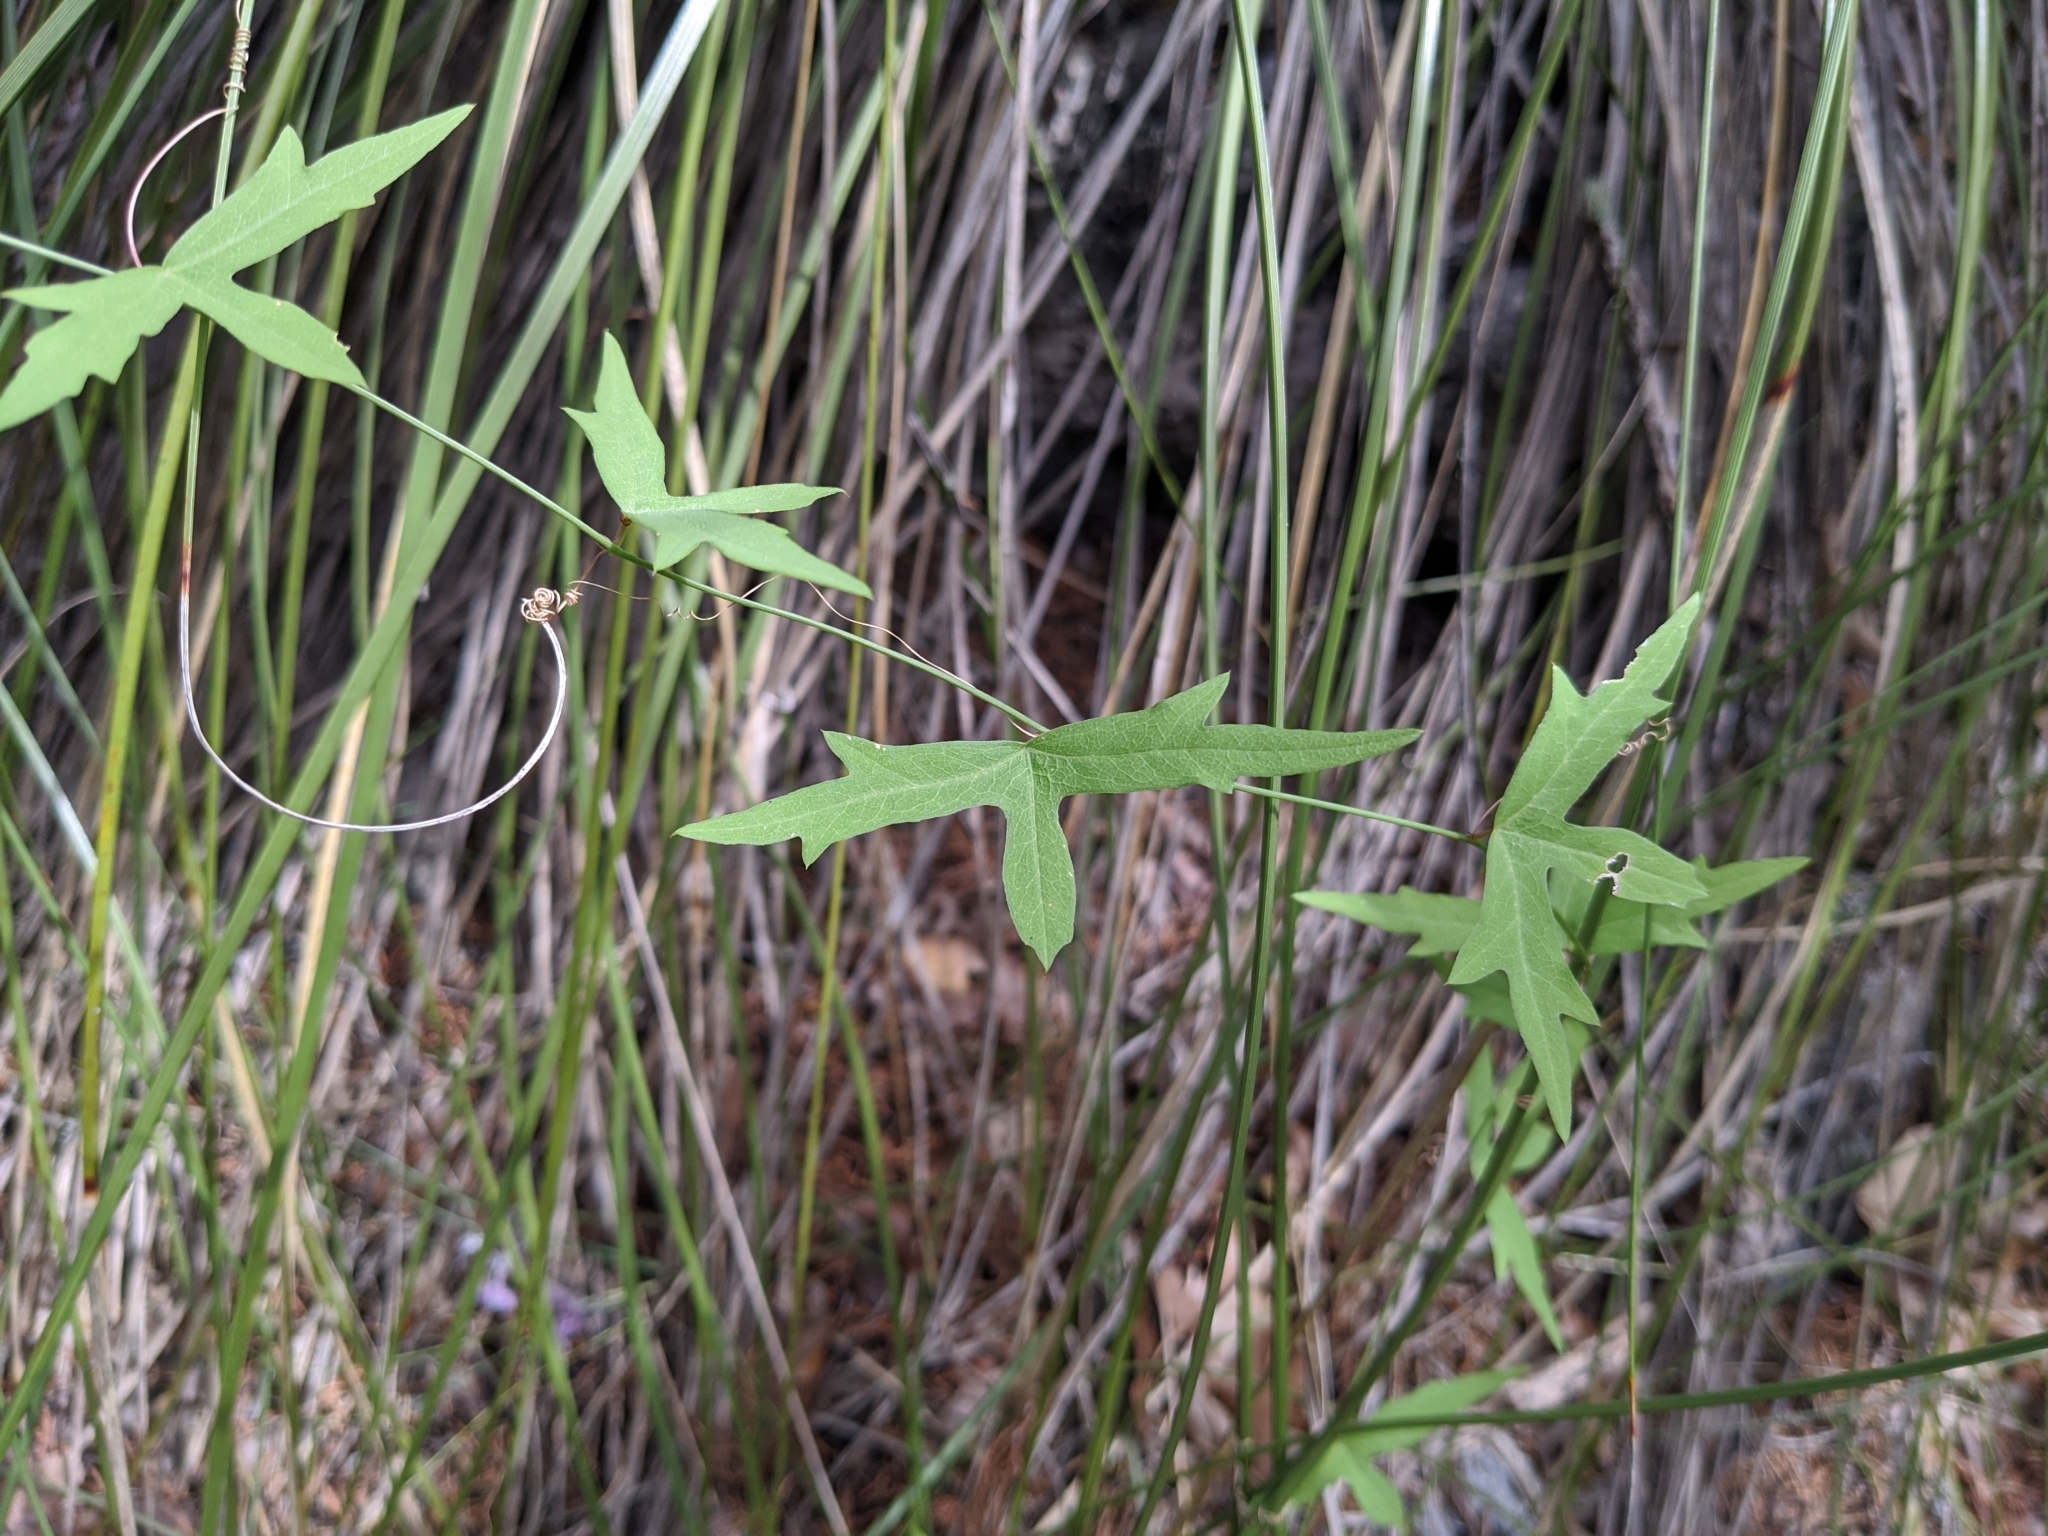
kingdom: Plantae
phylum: Tracheophyta
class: Magnoliopsida
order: Malpighiales
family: Passifloraceae
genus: Passiflora
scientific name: Passiflora tenuiloba
